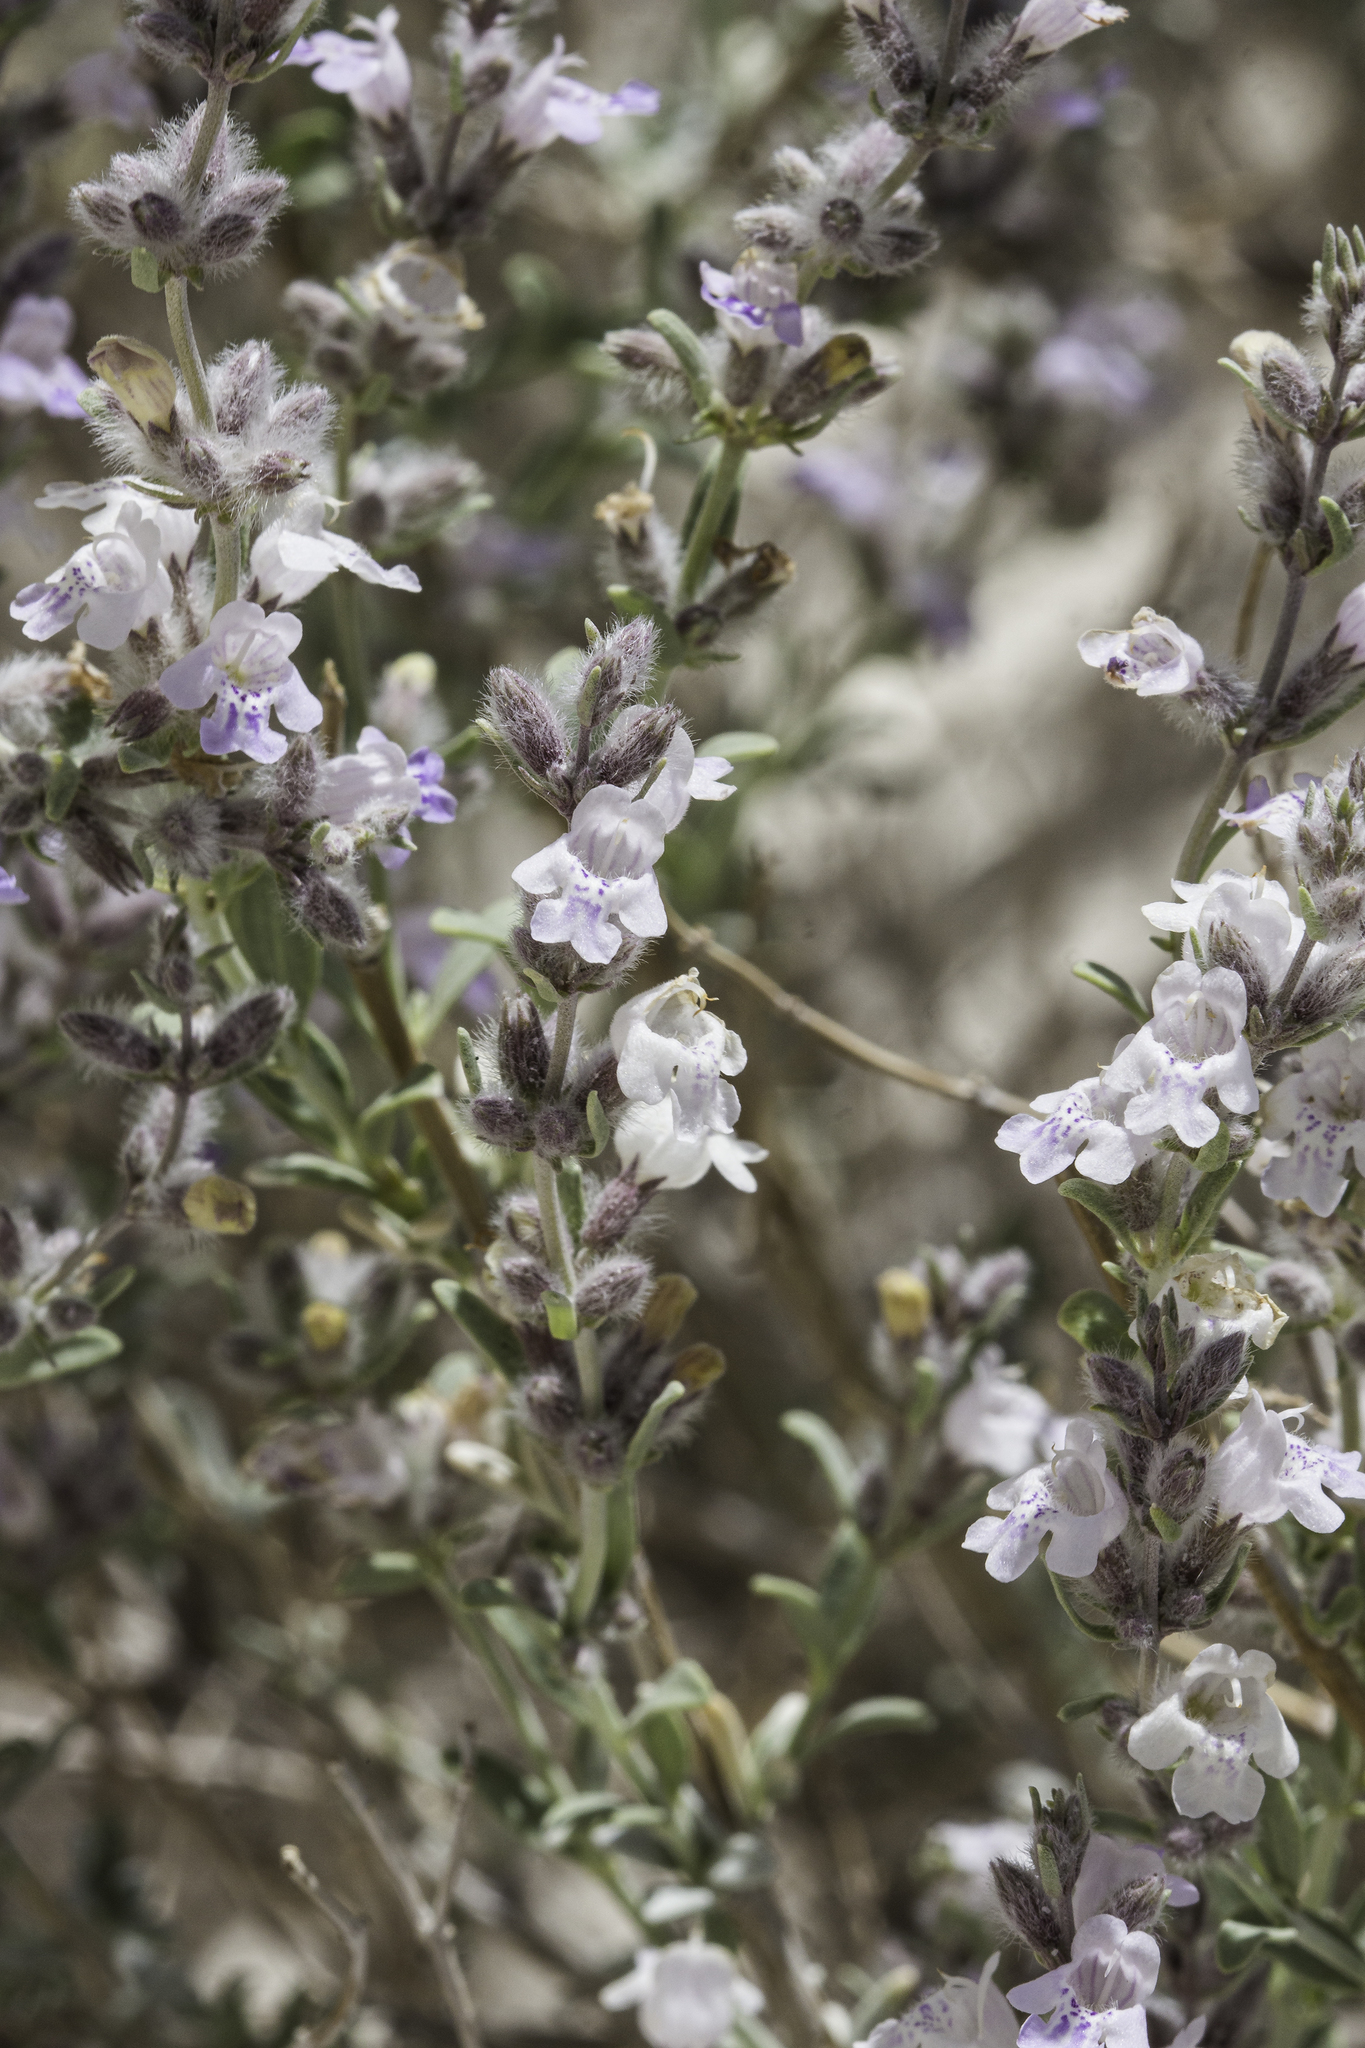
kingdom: Plantae
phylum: Tracheophyta
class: Magnoliopsida
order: Lamiales
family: Lamiaceae
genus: Poliomintha
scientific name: Poliomintha incana
